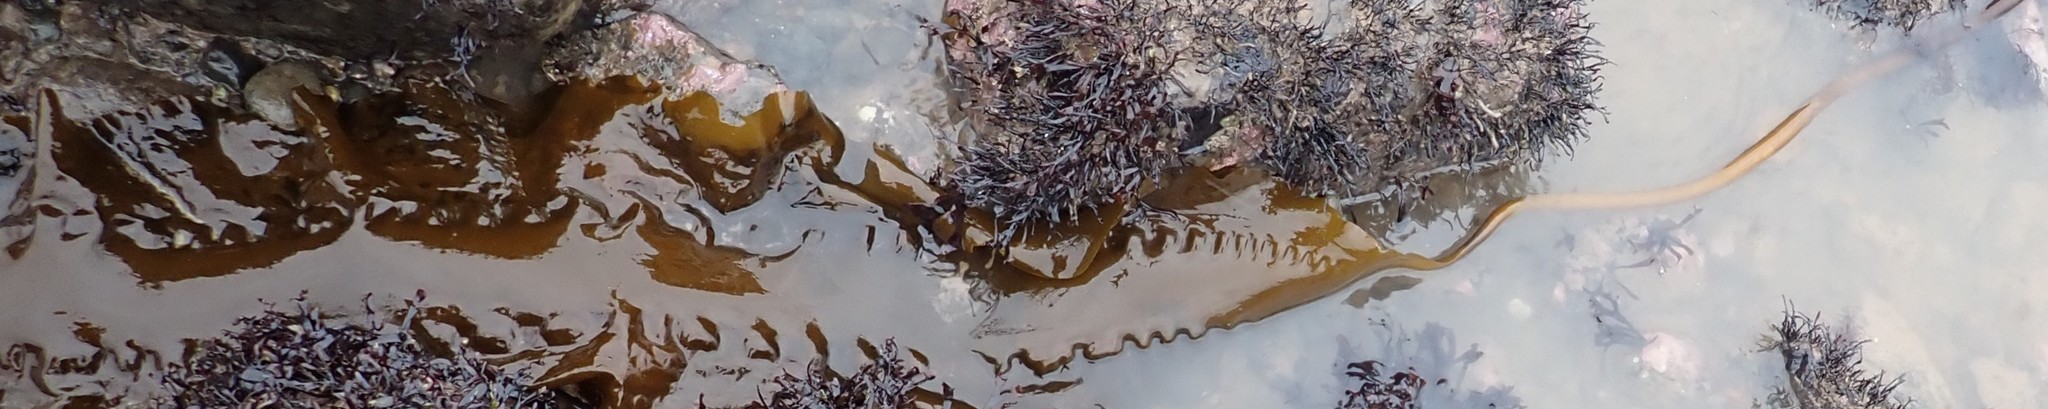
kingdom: Chromista
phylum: Ochrophyta
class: Phaeophyceae
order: Laminariales
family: Laminariaceae
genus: Saccharina
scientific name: Saccharina latissima
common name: Poor man's weather glass
